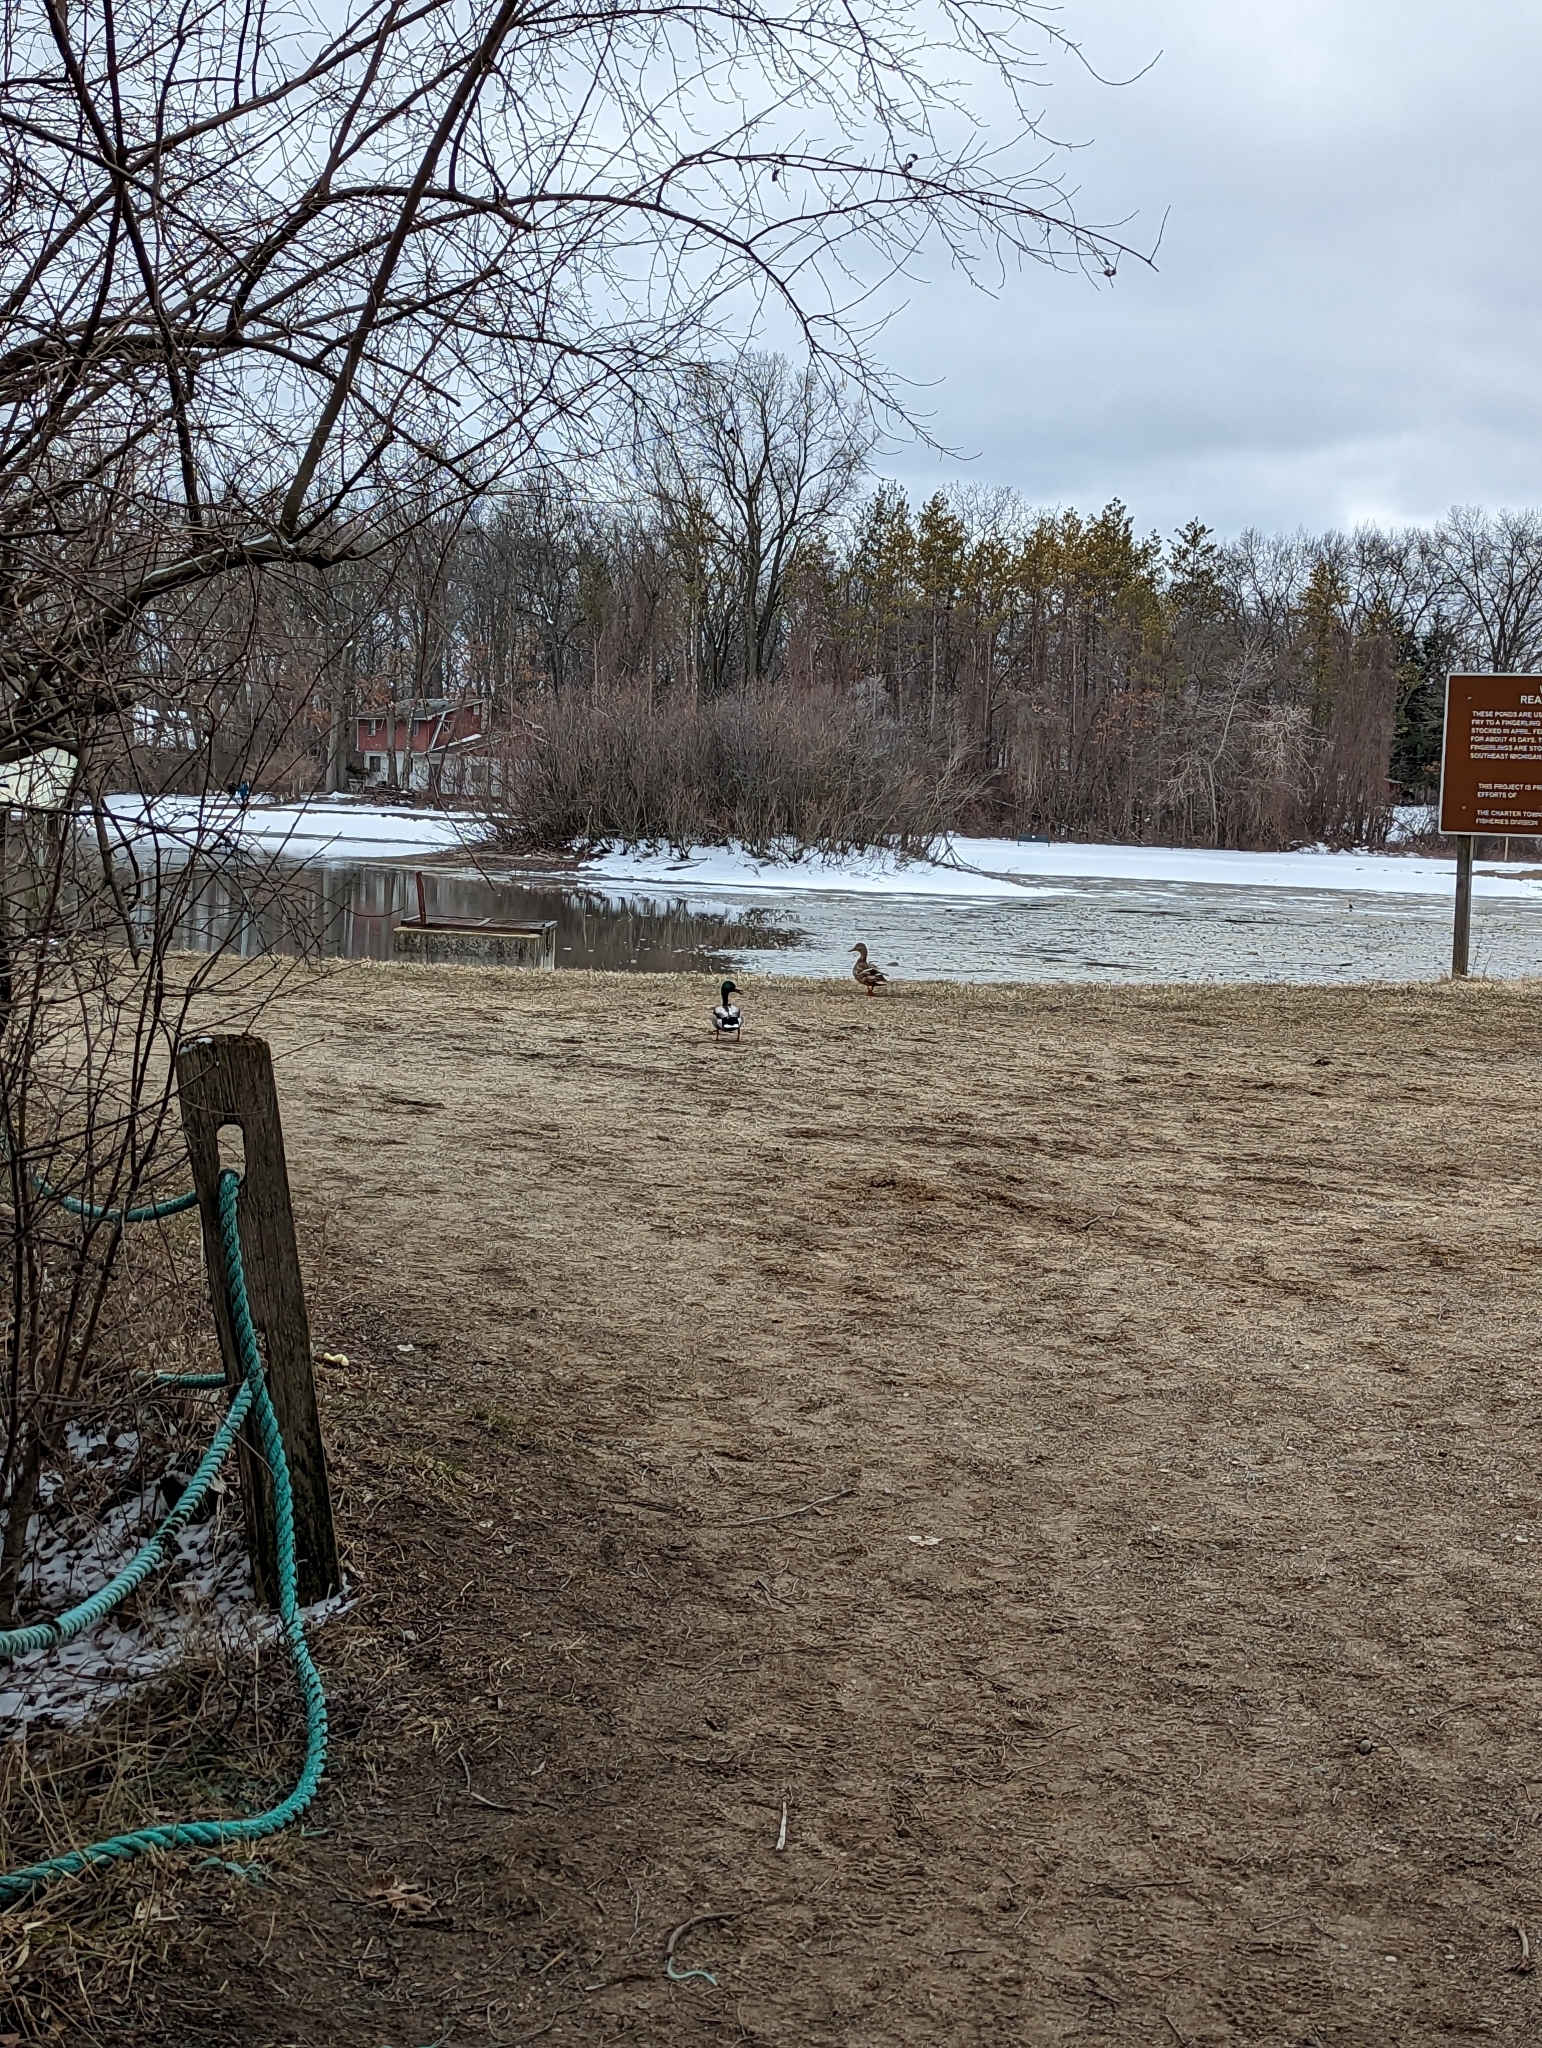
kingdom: Animalia
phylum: Chordata
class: Aves
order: Anseriformes
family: Anatidae
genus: Anas
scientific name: Anas platyrhynchos
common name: Mallard
